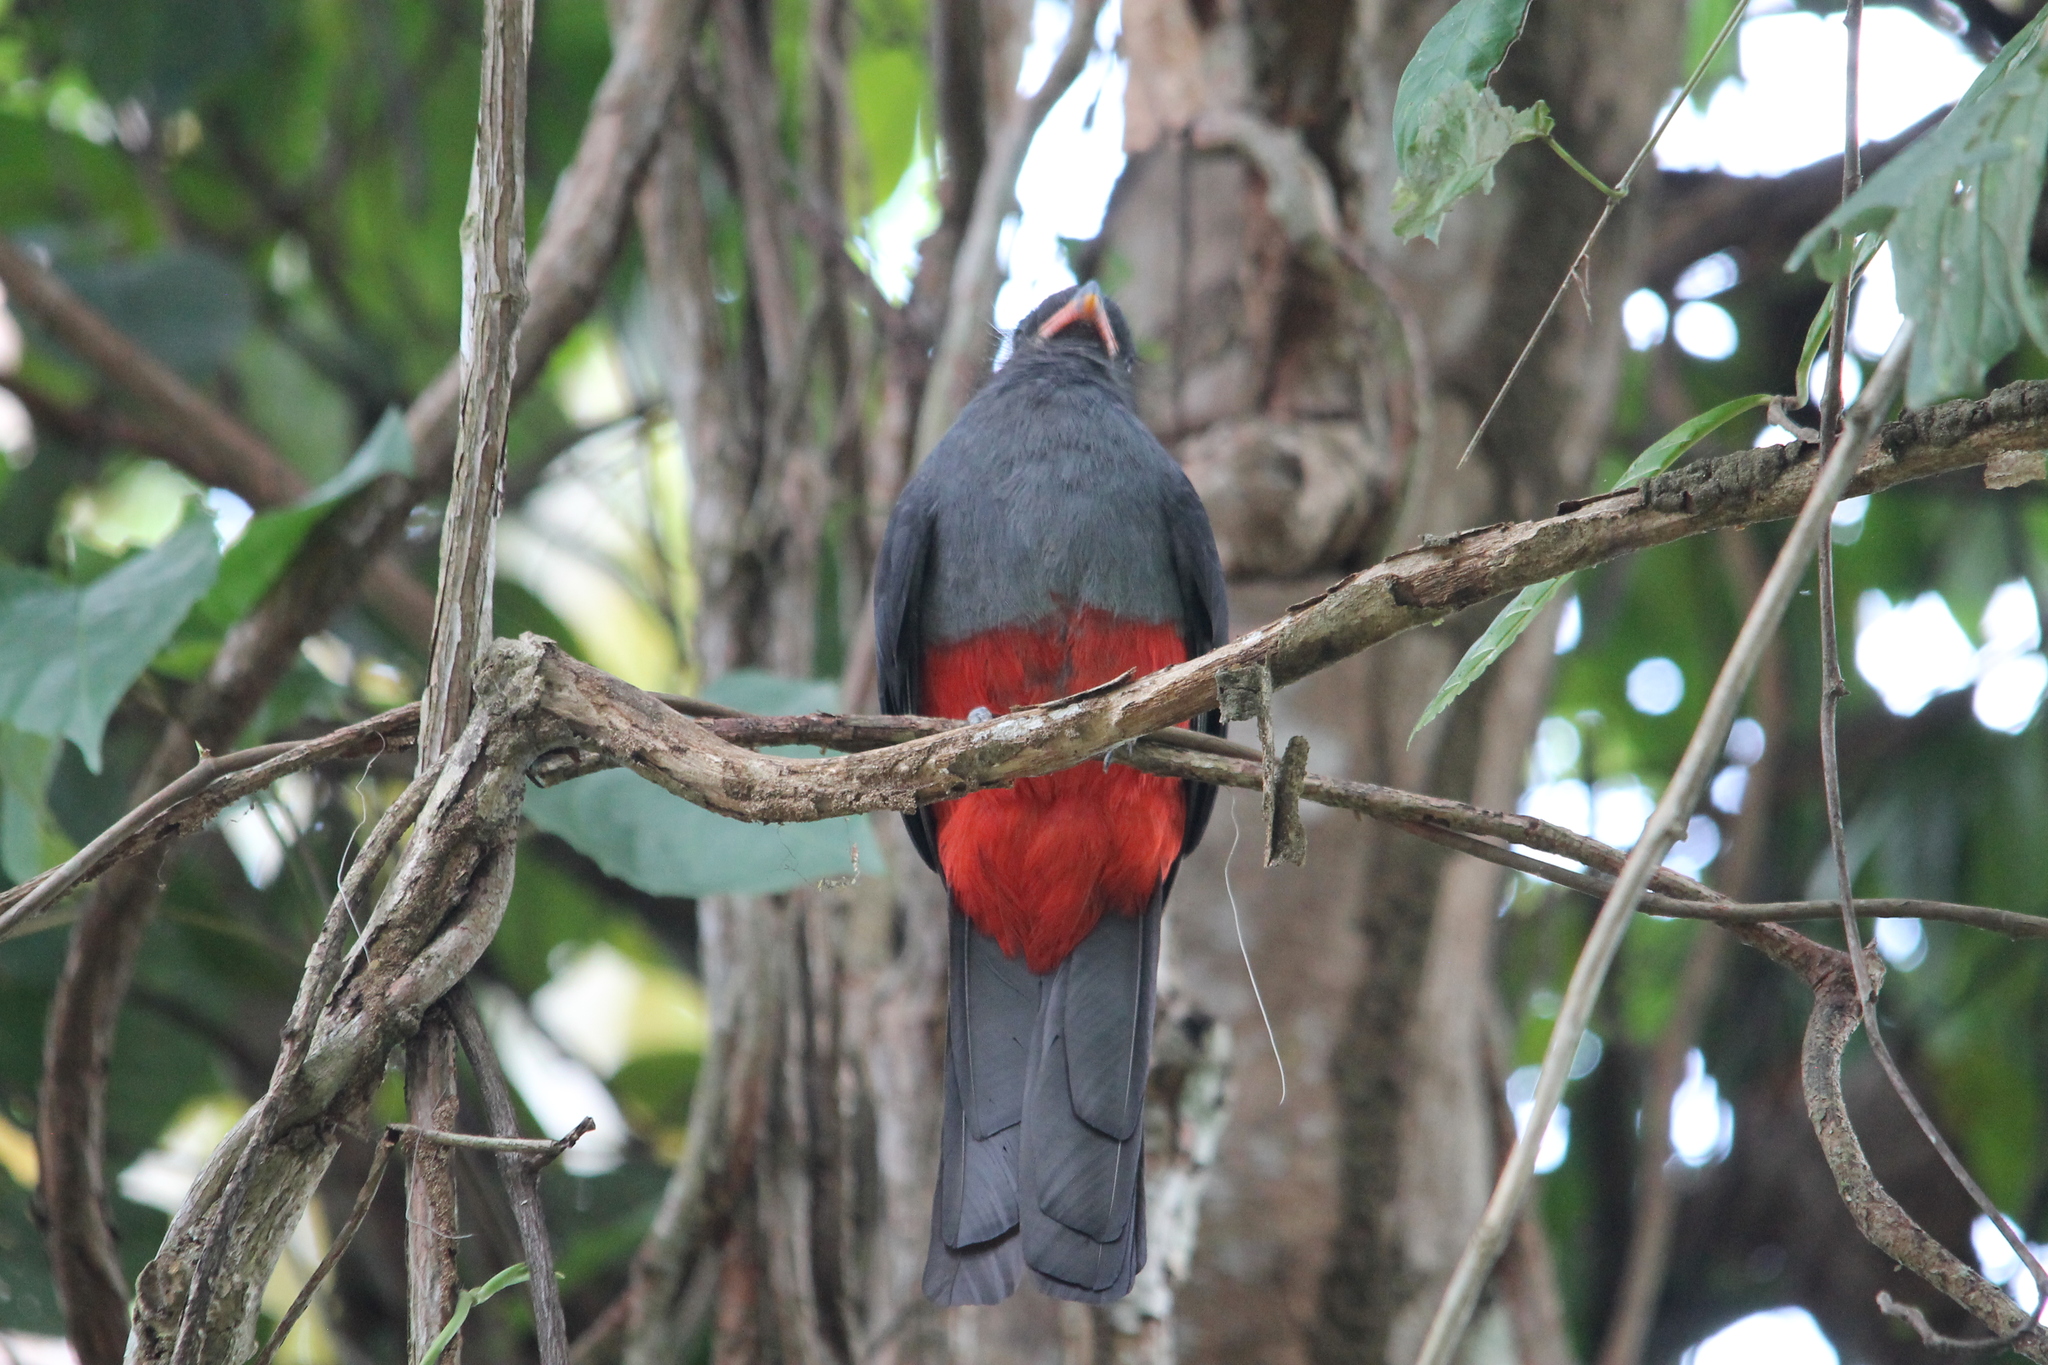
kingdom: Animalia
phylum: Chordata
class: Aves
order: Trogoniformes
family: Trogonidae
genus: Trogon
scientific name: Trogon massena
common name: Slaty-tailed trogon
